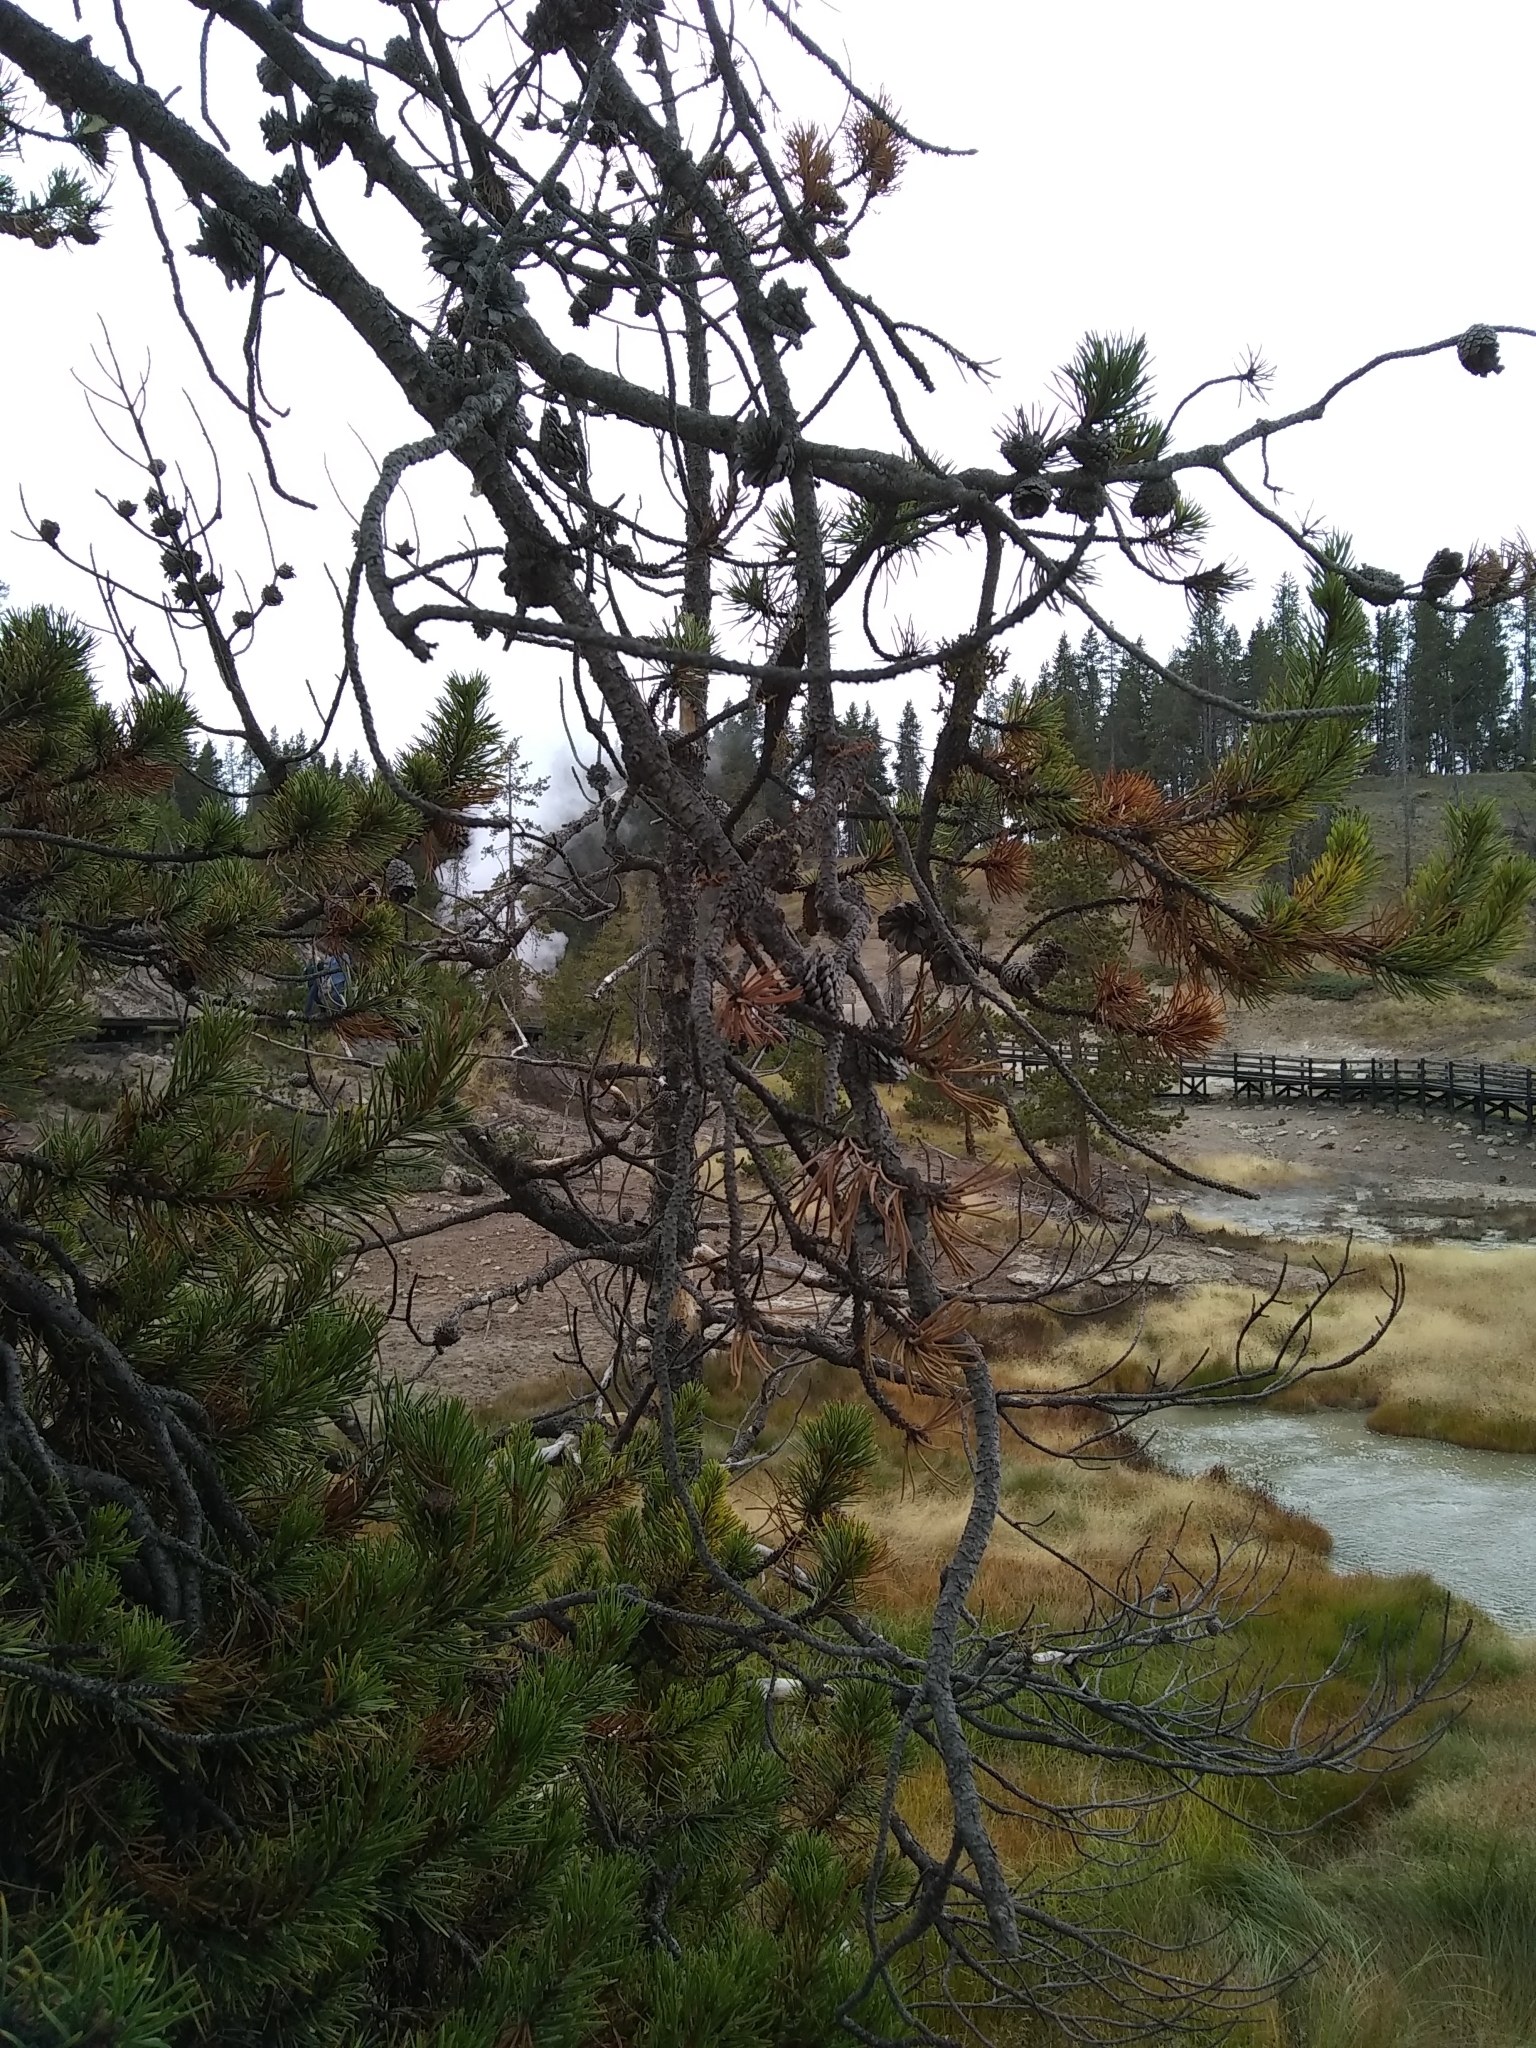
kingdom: Plantae
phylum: Tracheophyta
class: Pinopsida
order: Pinales
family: Pinaceae
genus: Pinus
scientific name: Pinus contorta
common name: Lodgepole pine
